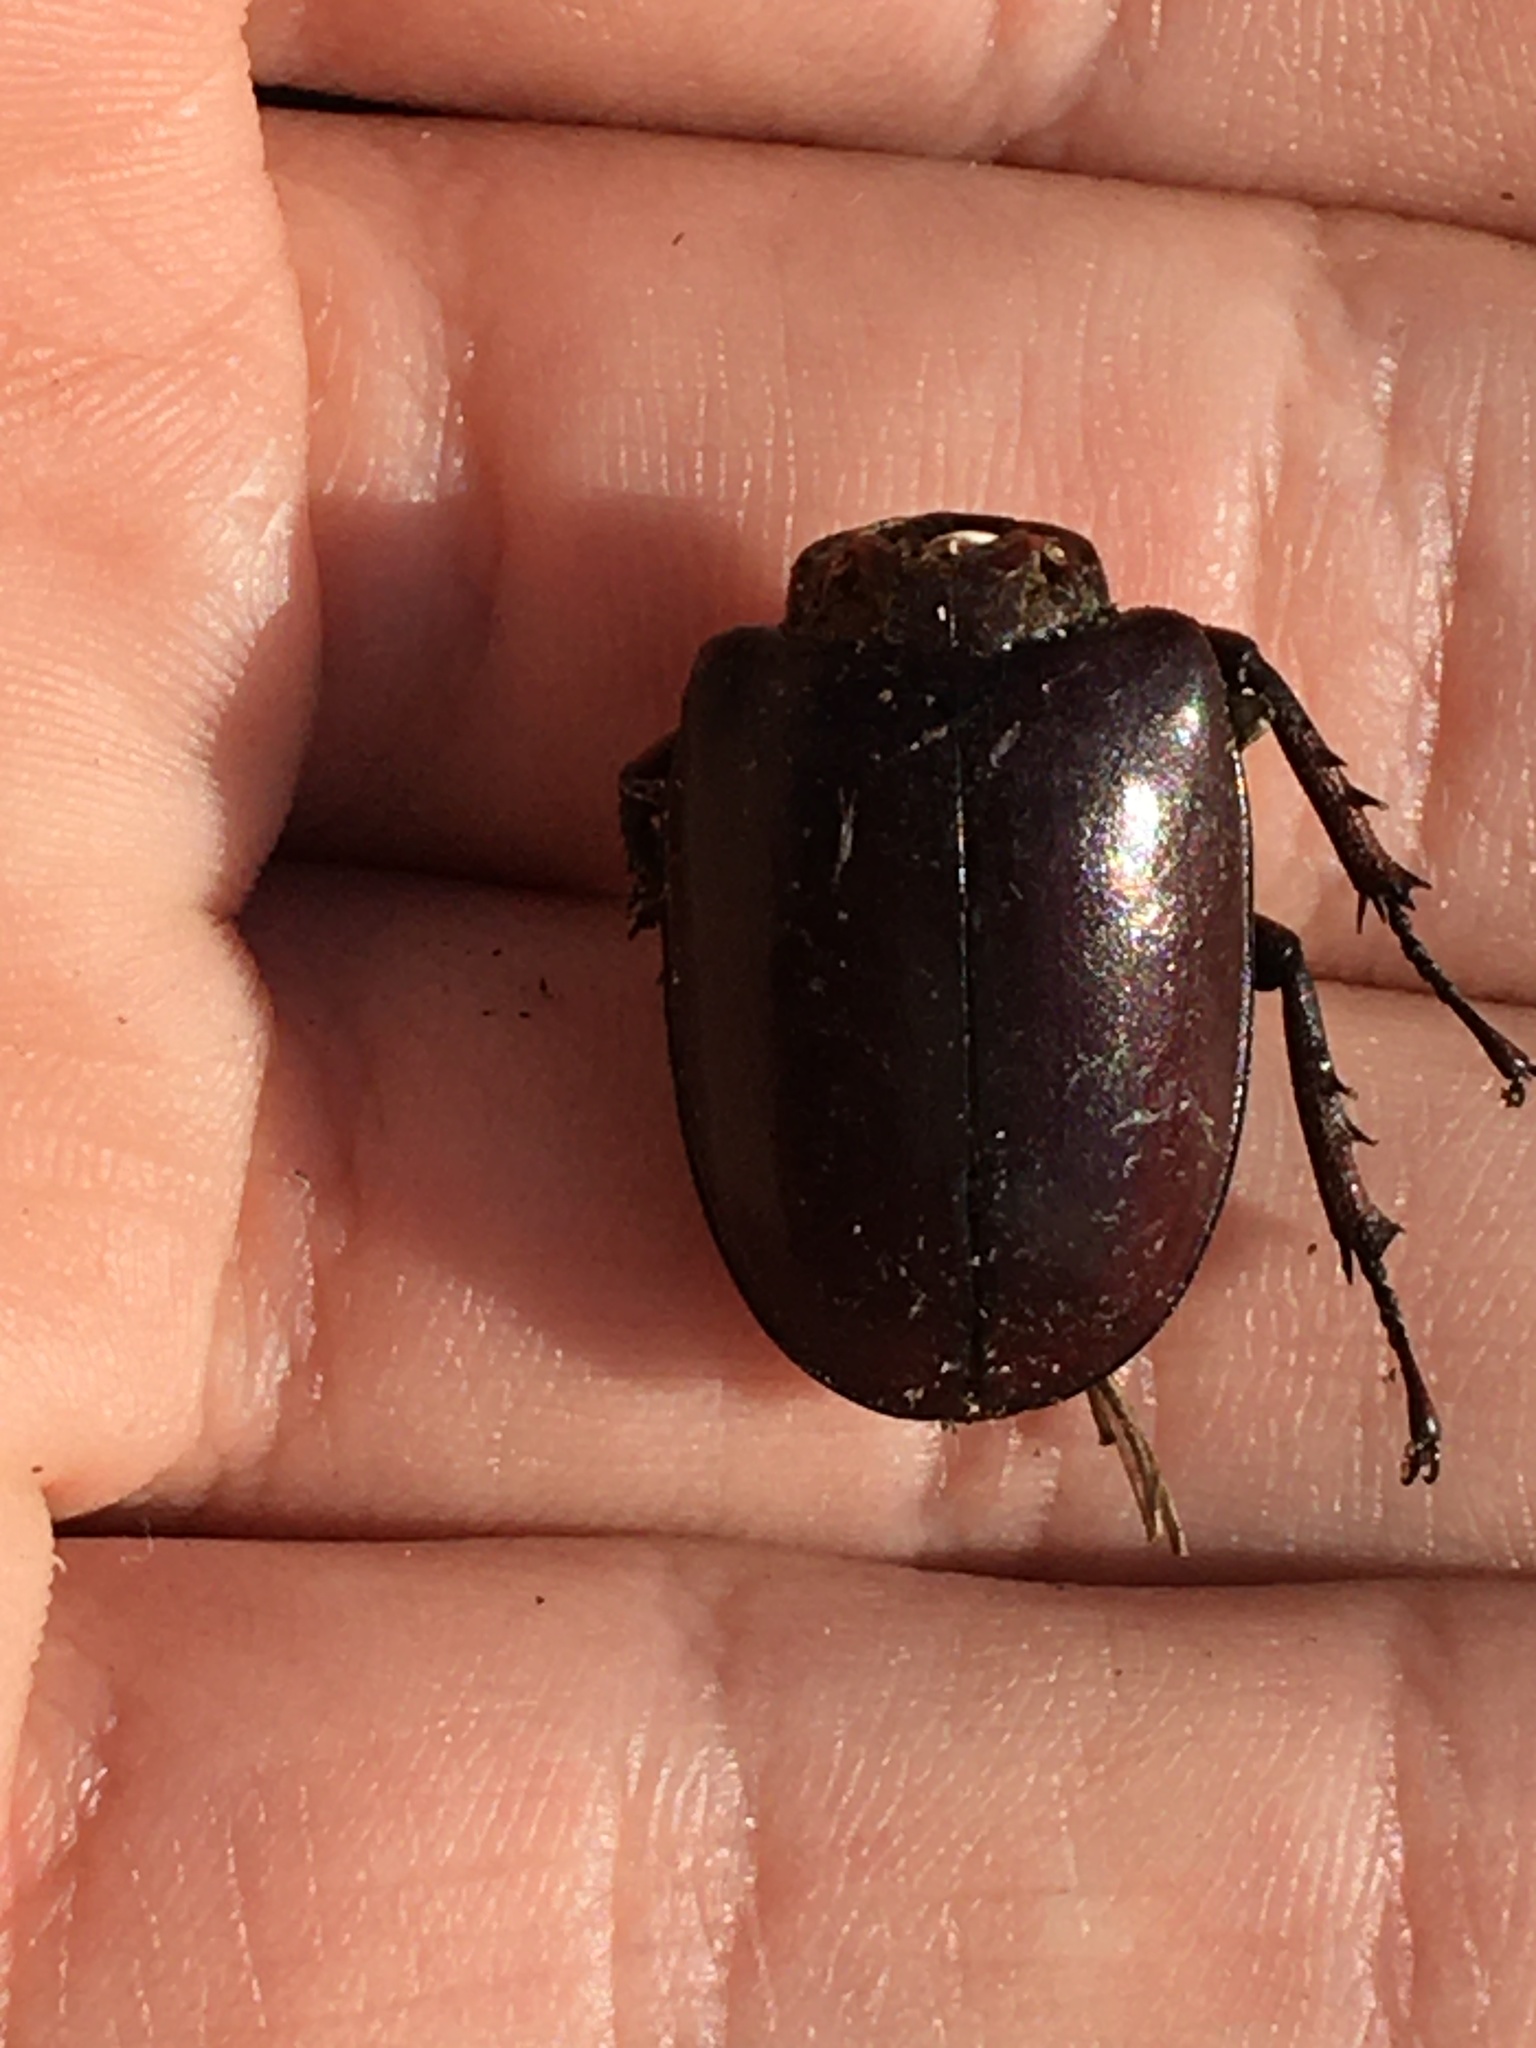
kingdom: Animalia
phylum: Arthropoda
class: Insecta
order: Coleoptera
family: Lucanidae
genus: Lucanus
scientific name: Lucanus capreolus
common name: Stag beetle
